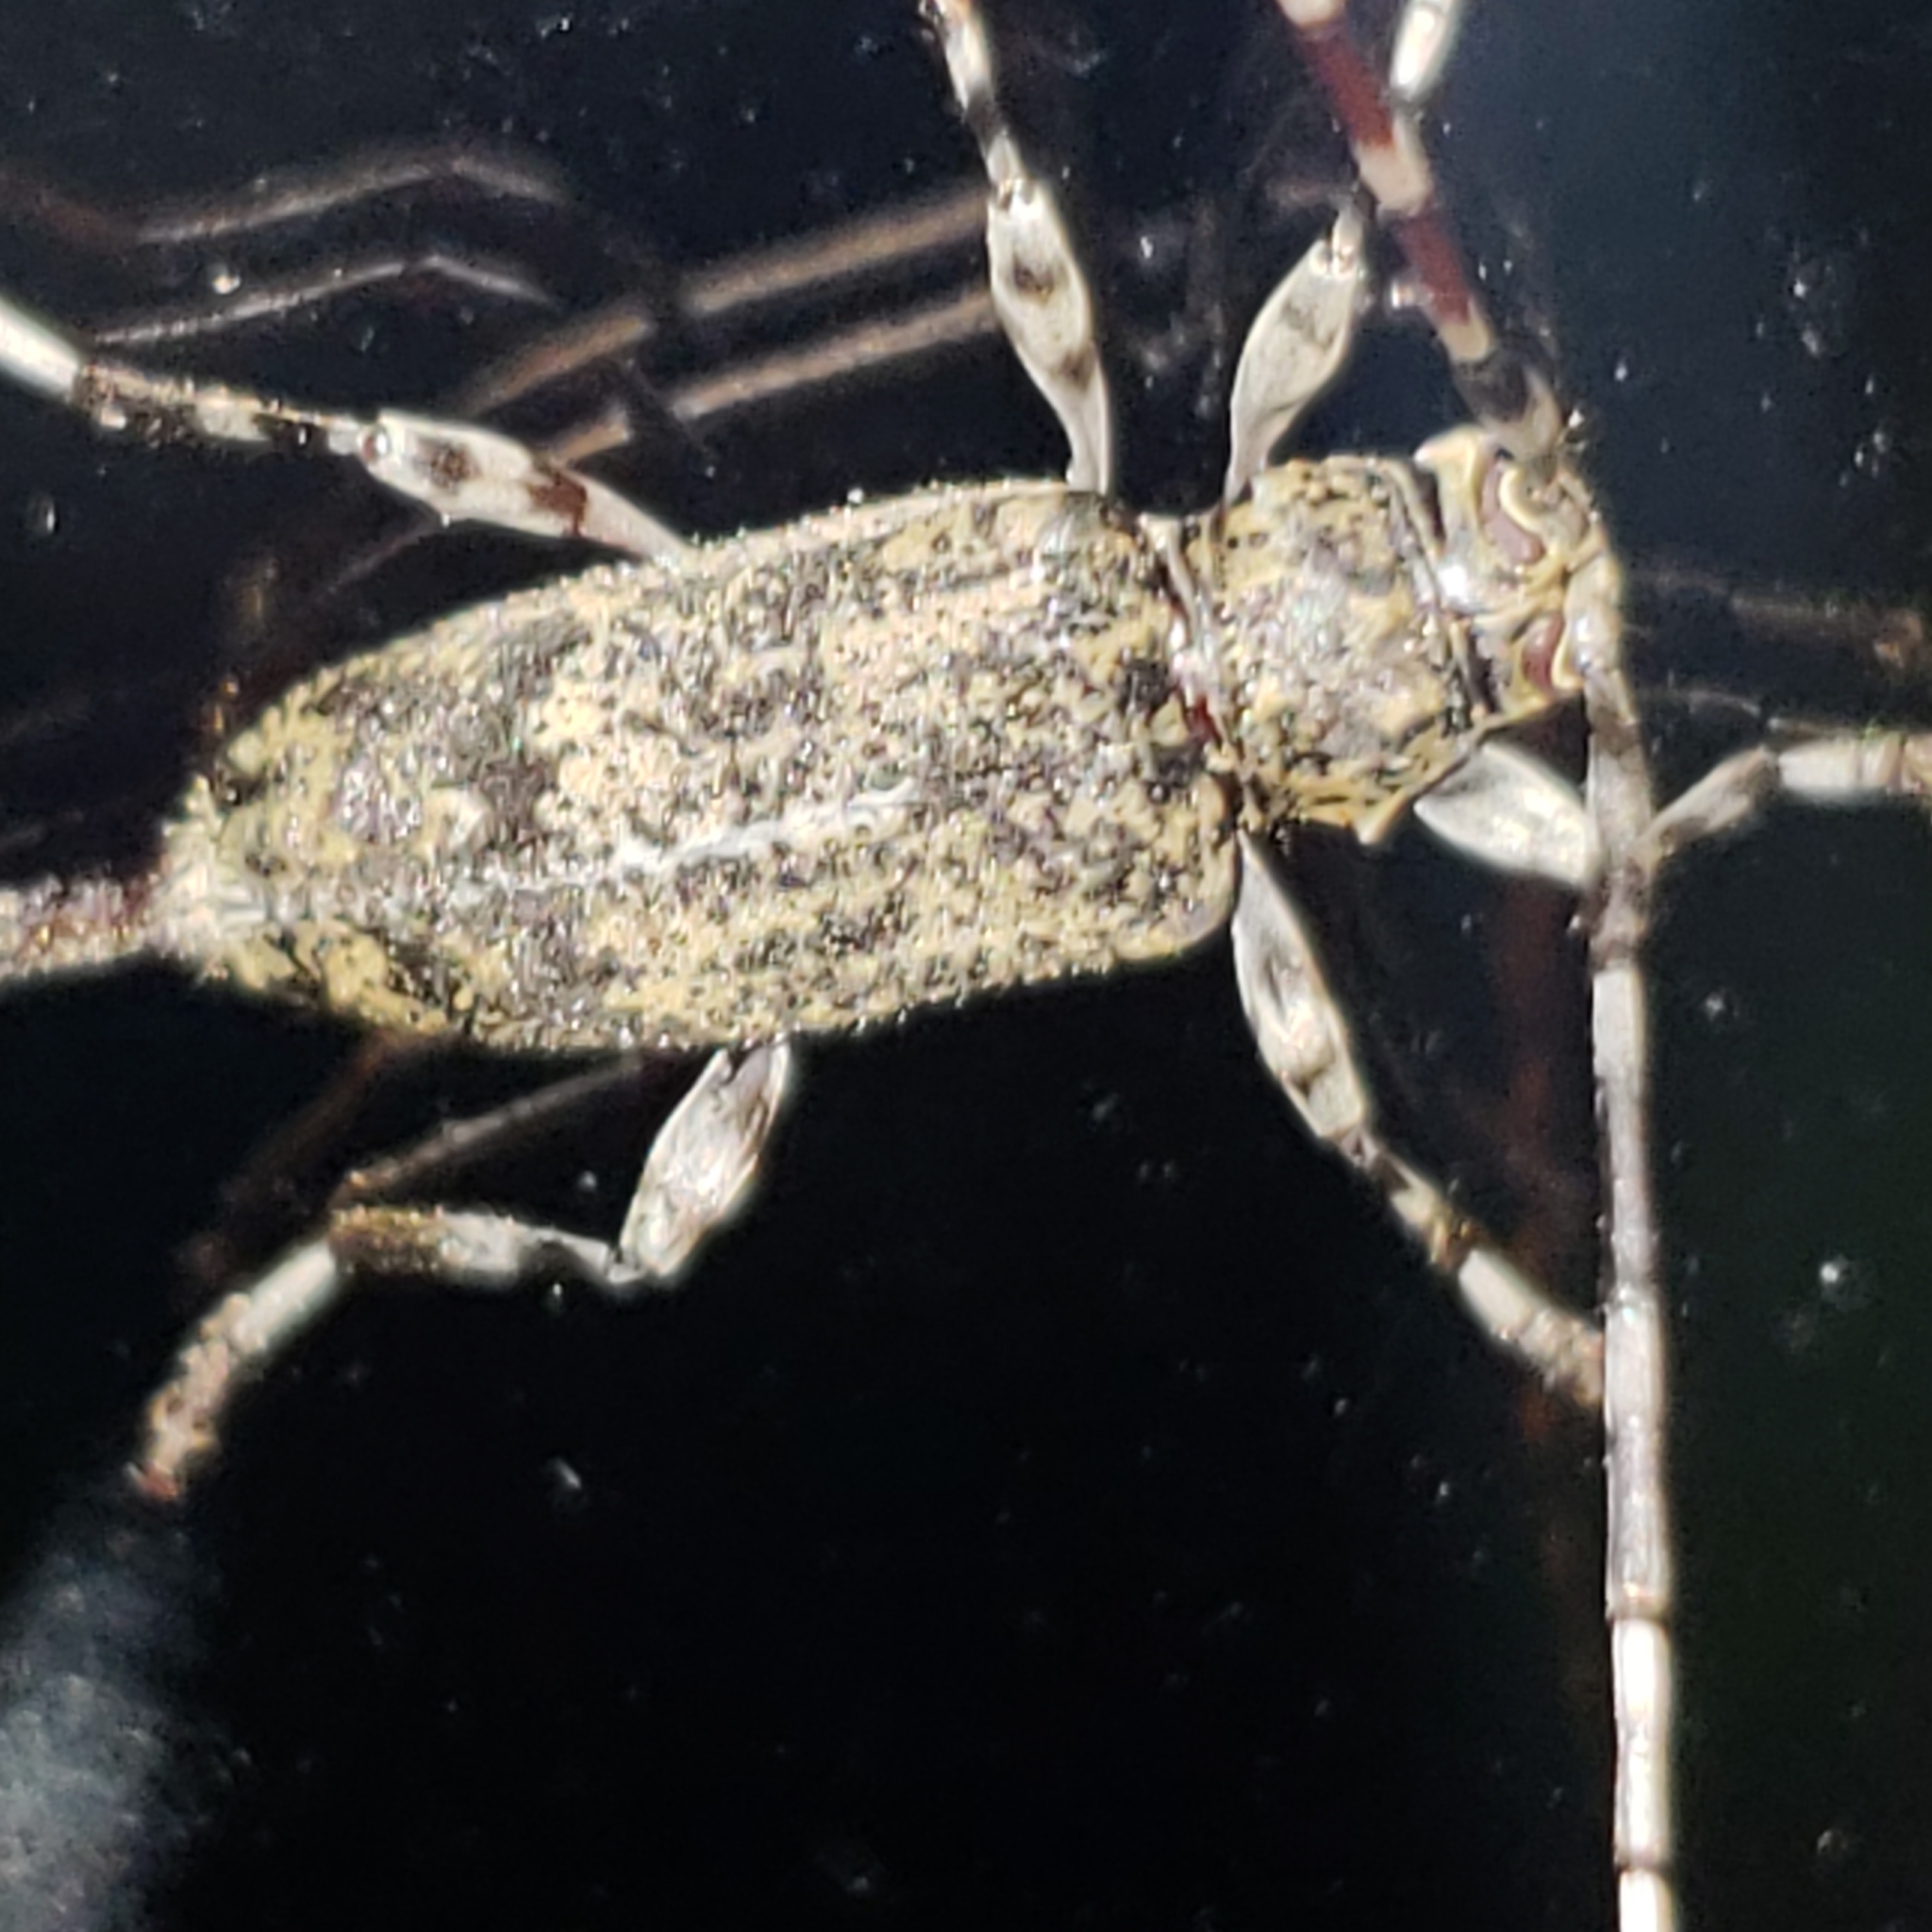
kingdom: Animalia
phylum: Arthropoda
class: Insecta
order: Coleoptera
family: Cerambycidae
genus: Graphisurus
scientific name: Graphisurus fasciatus
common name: Banded graphisurus
